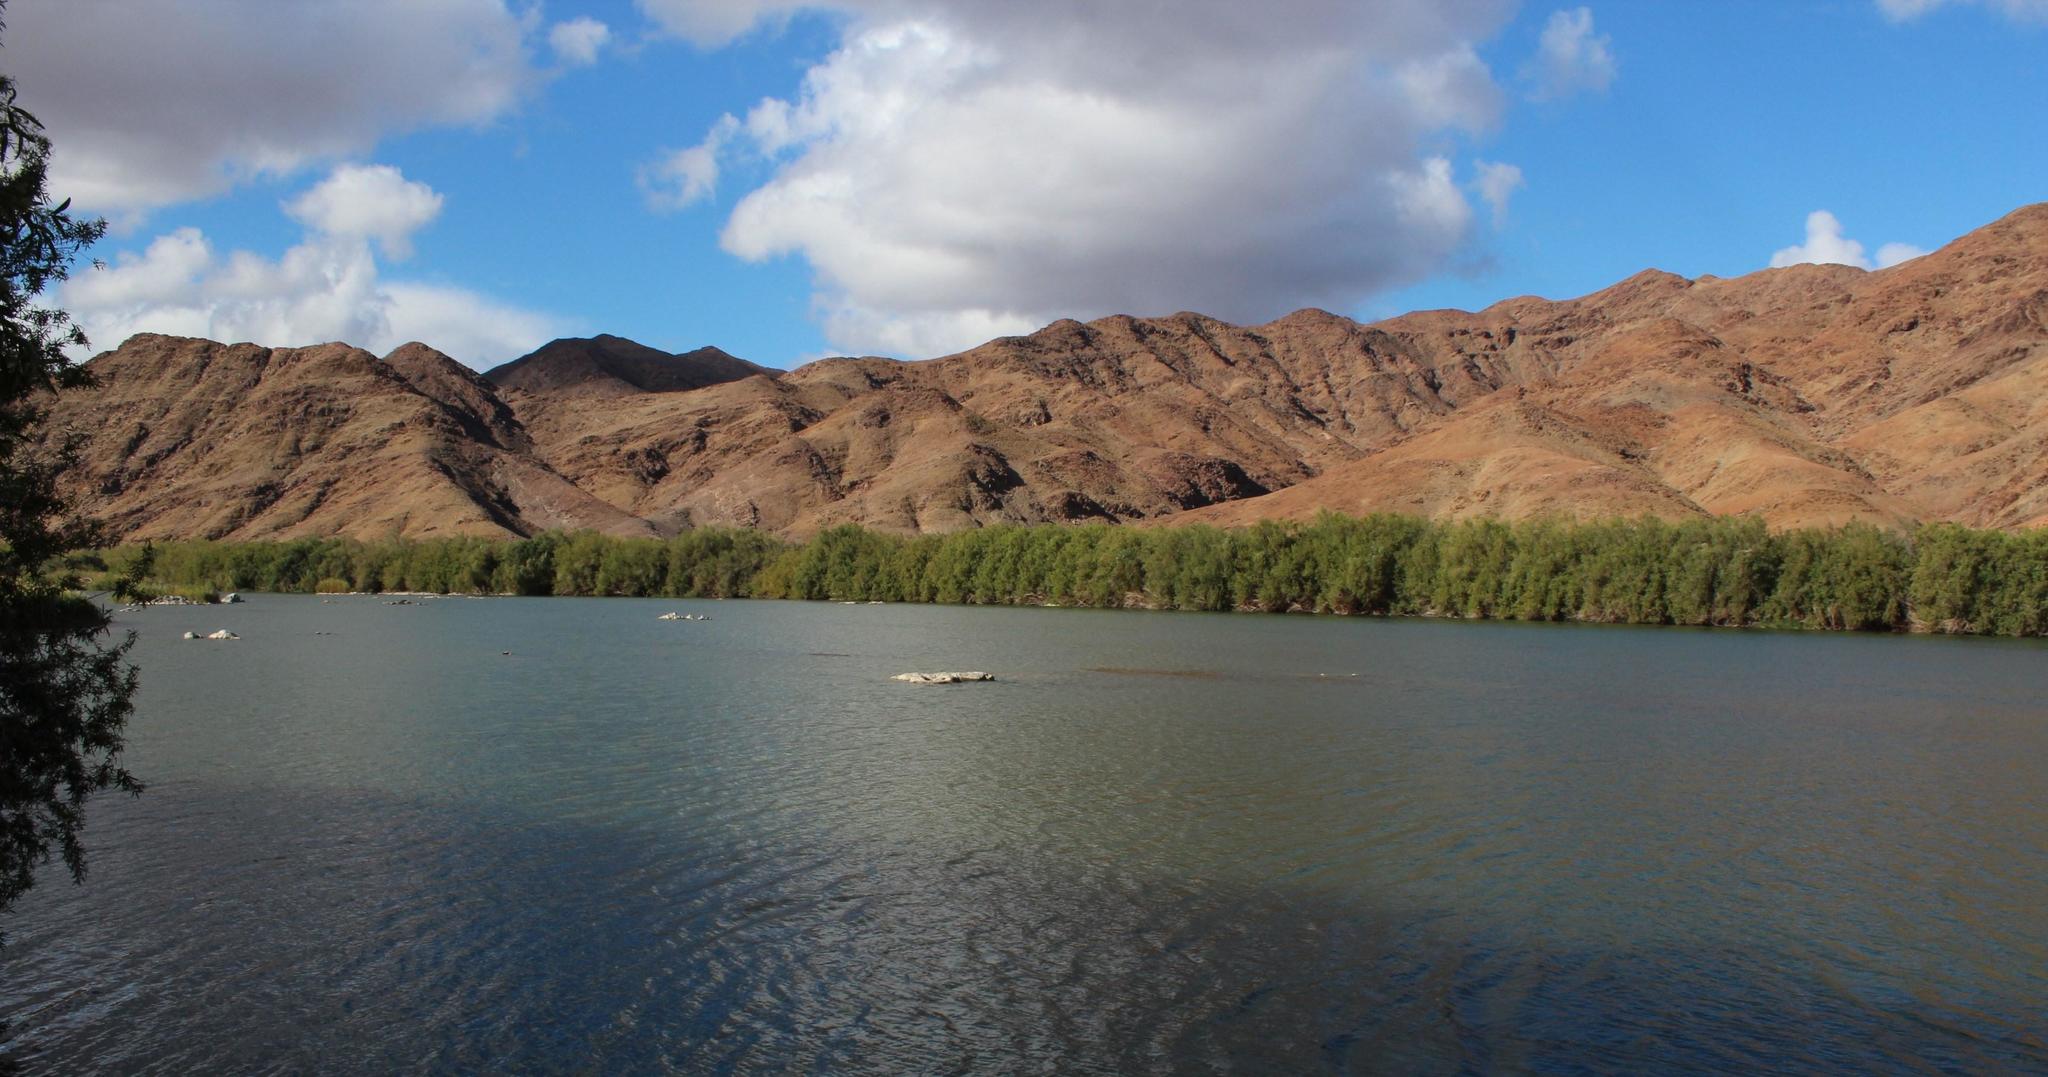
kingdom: Plantae
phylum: Tracheophyta
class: Magnoliopsida
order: Sapindales
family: Anacardiaceae
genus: Searsia
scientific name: Searsia pendulina
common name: White karee
